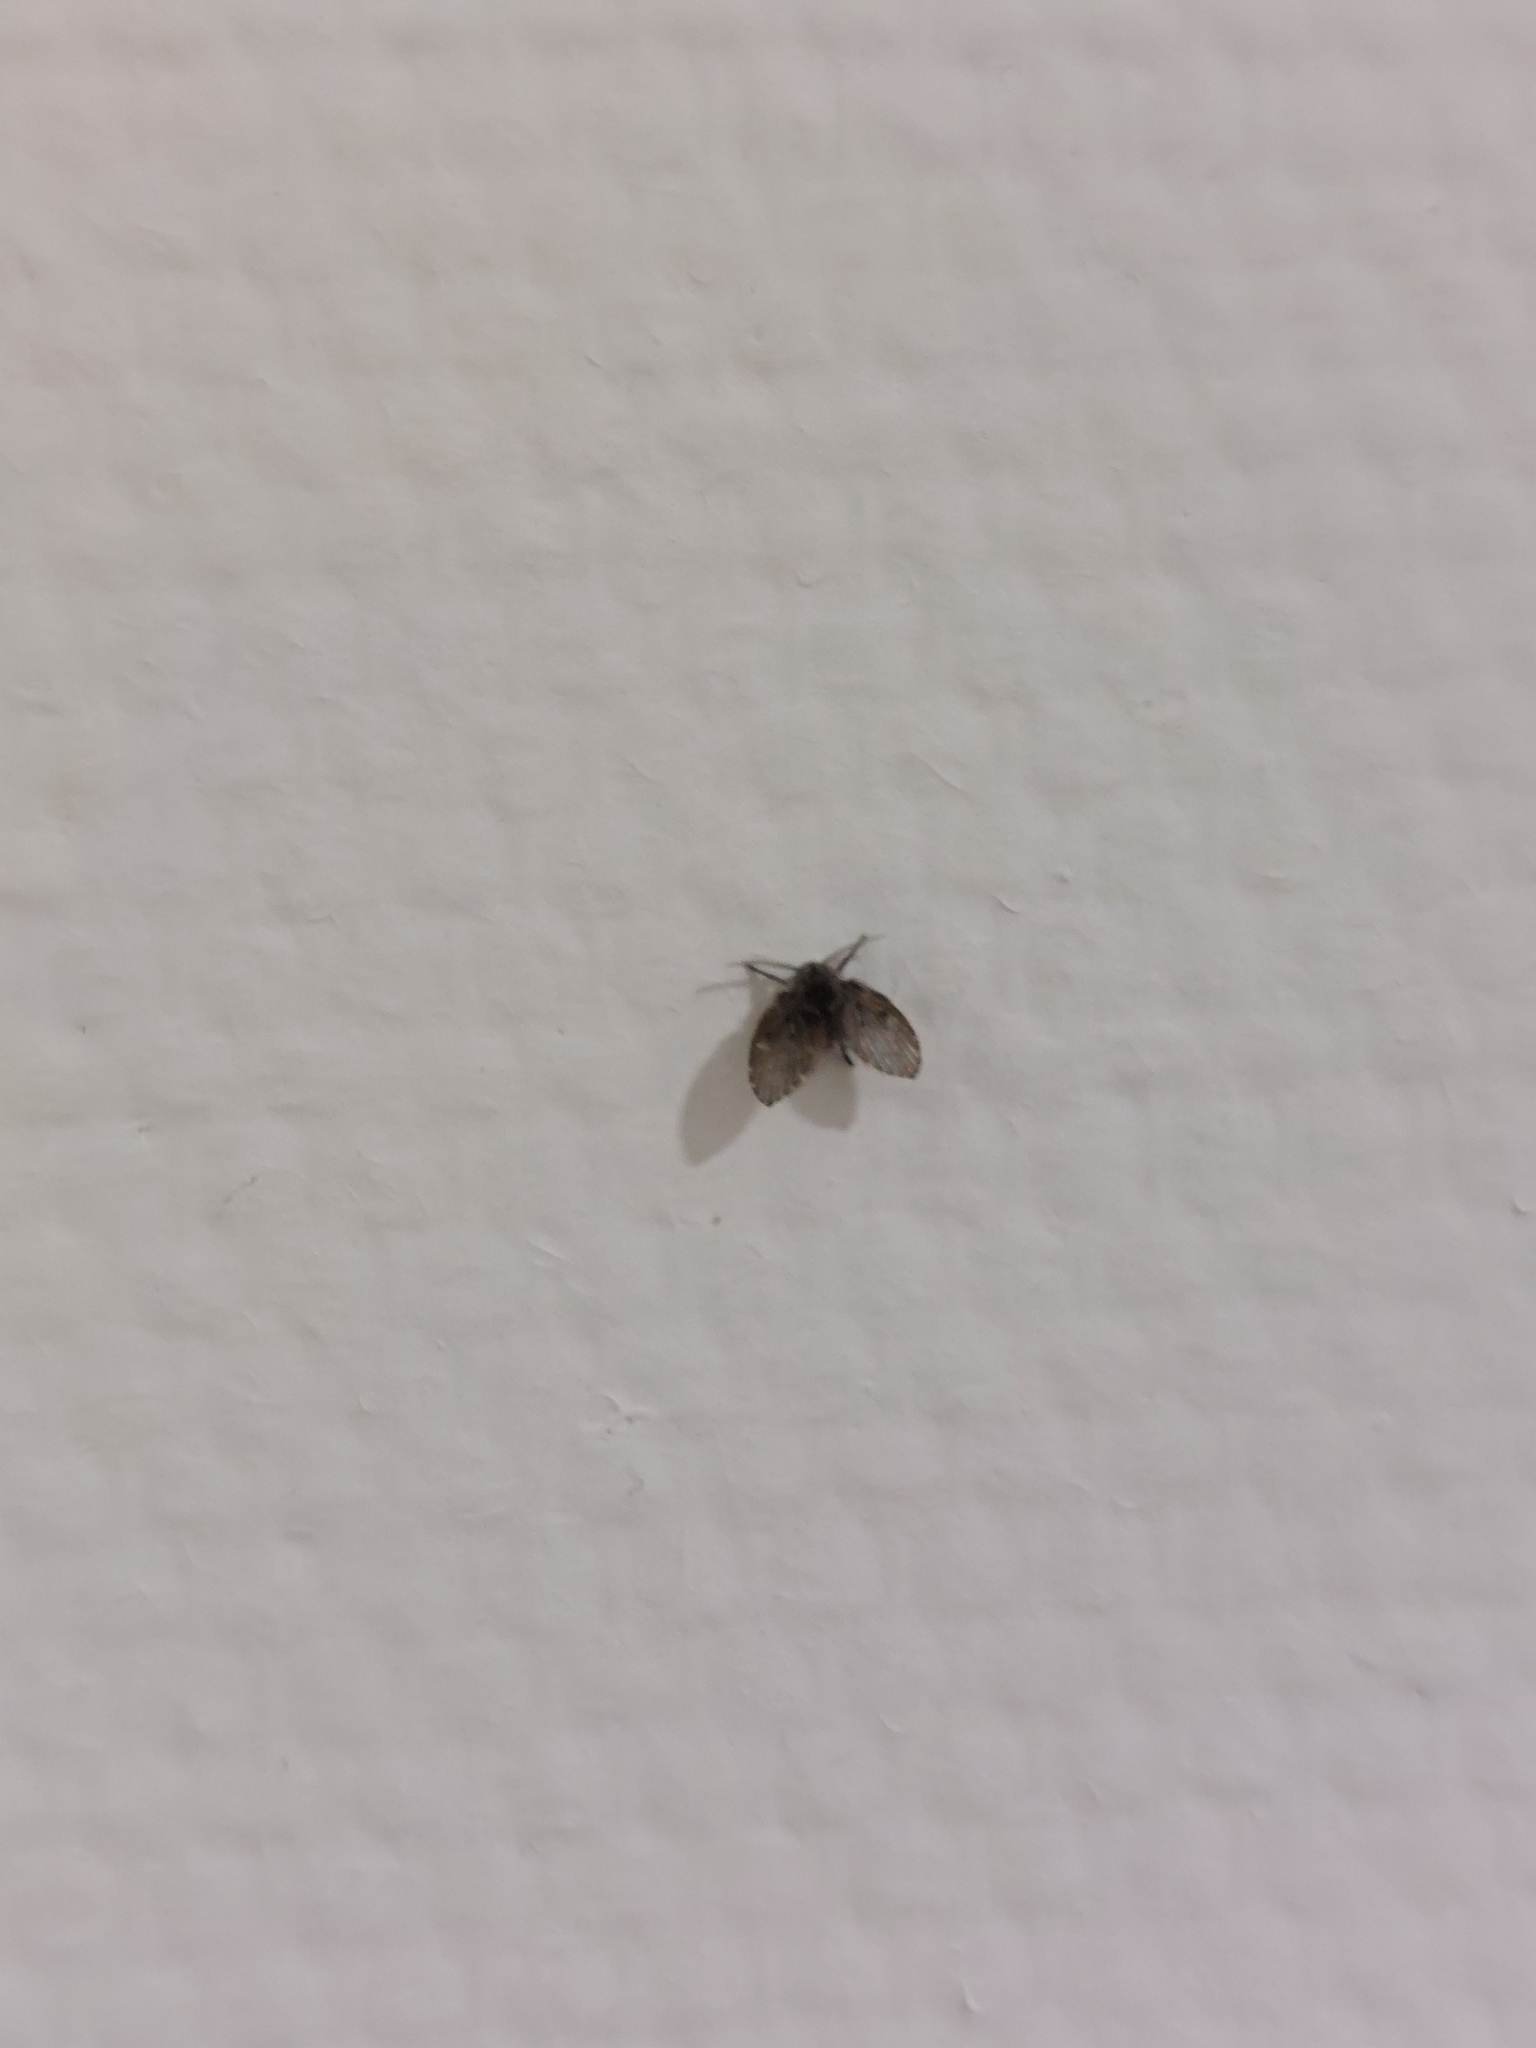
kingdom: Animalia
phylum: Arthropoda
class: Insecta
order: Diptera
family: Psychodidae
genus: Clogmia
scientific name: Clogmia albipunctatus
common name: White-spotted moth fly
